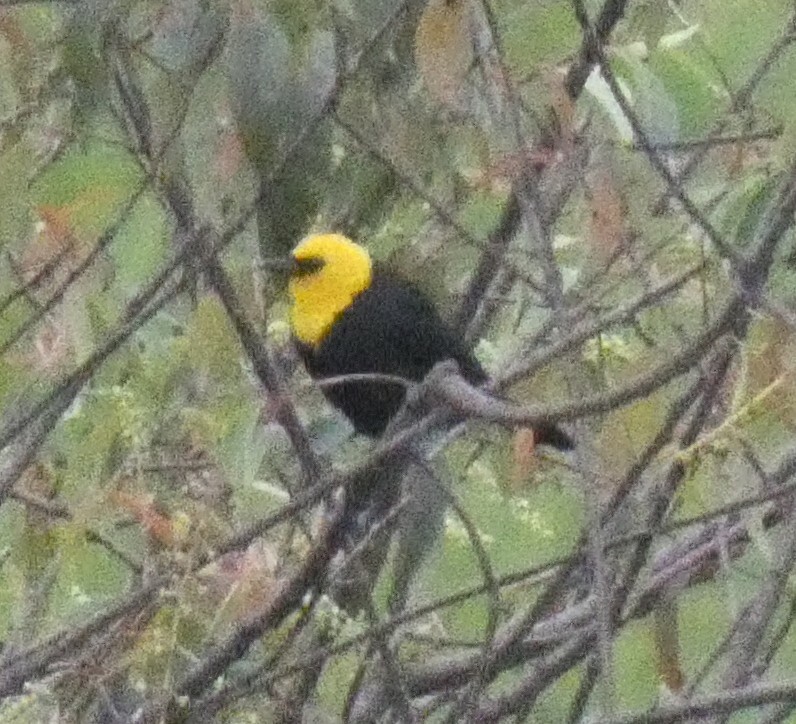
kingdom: Animalia
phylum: Chordata
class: Aves
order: Passeriformes
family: Icteridae
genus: Chrysomus
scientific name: Chrysomus icterocephalus
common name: Yellow-hooded blackbird
